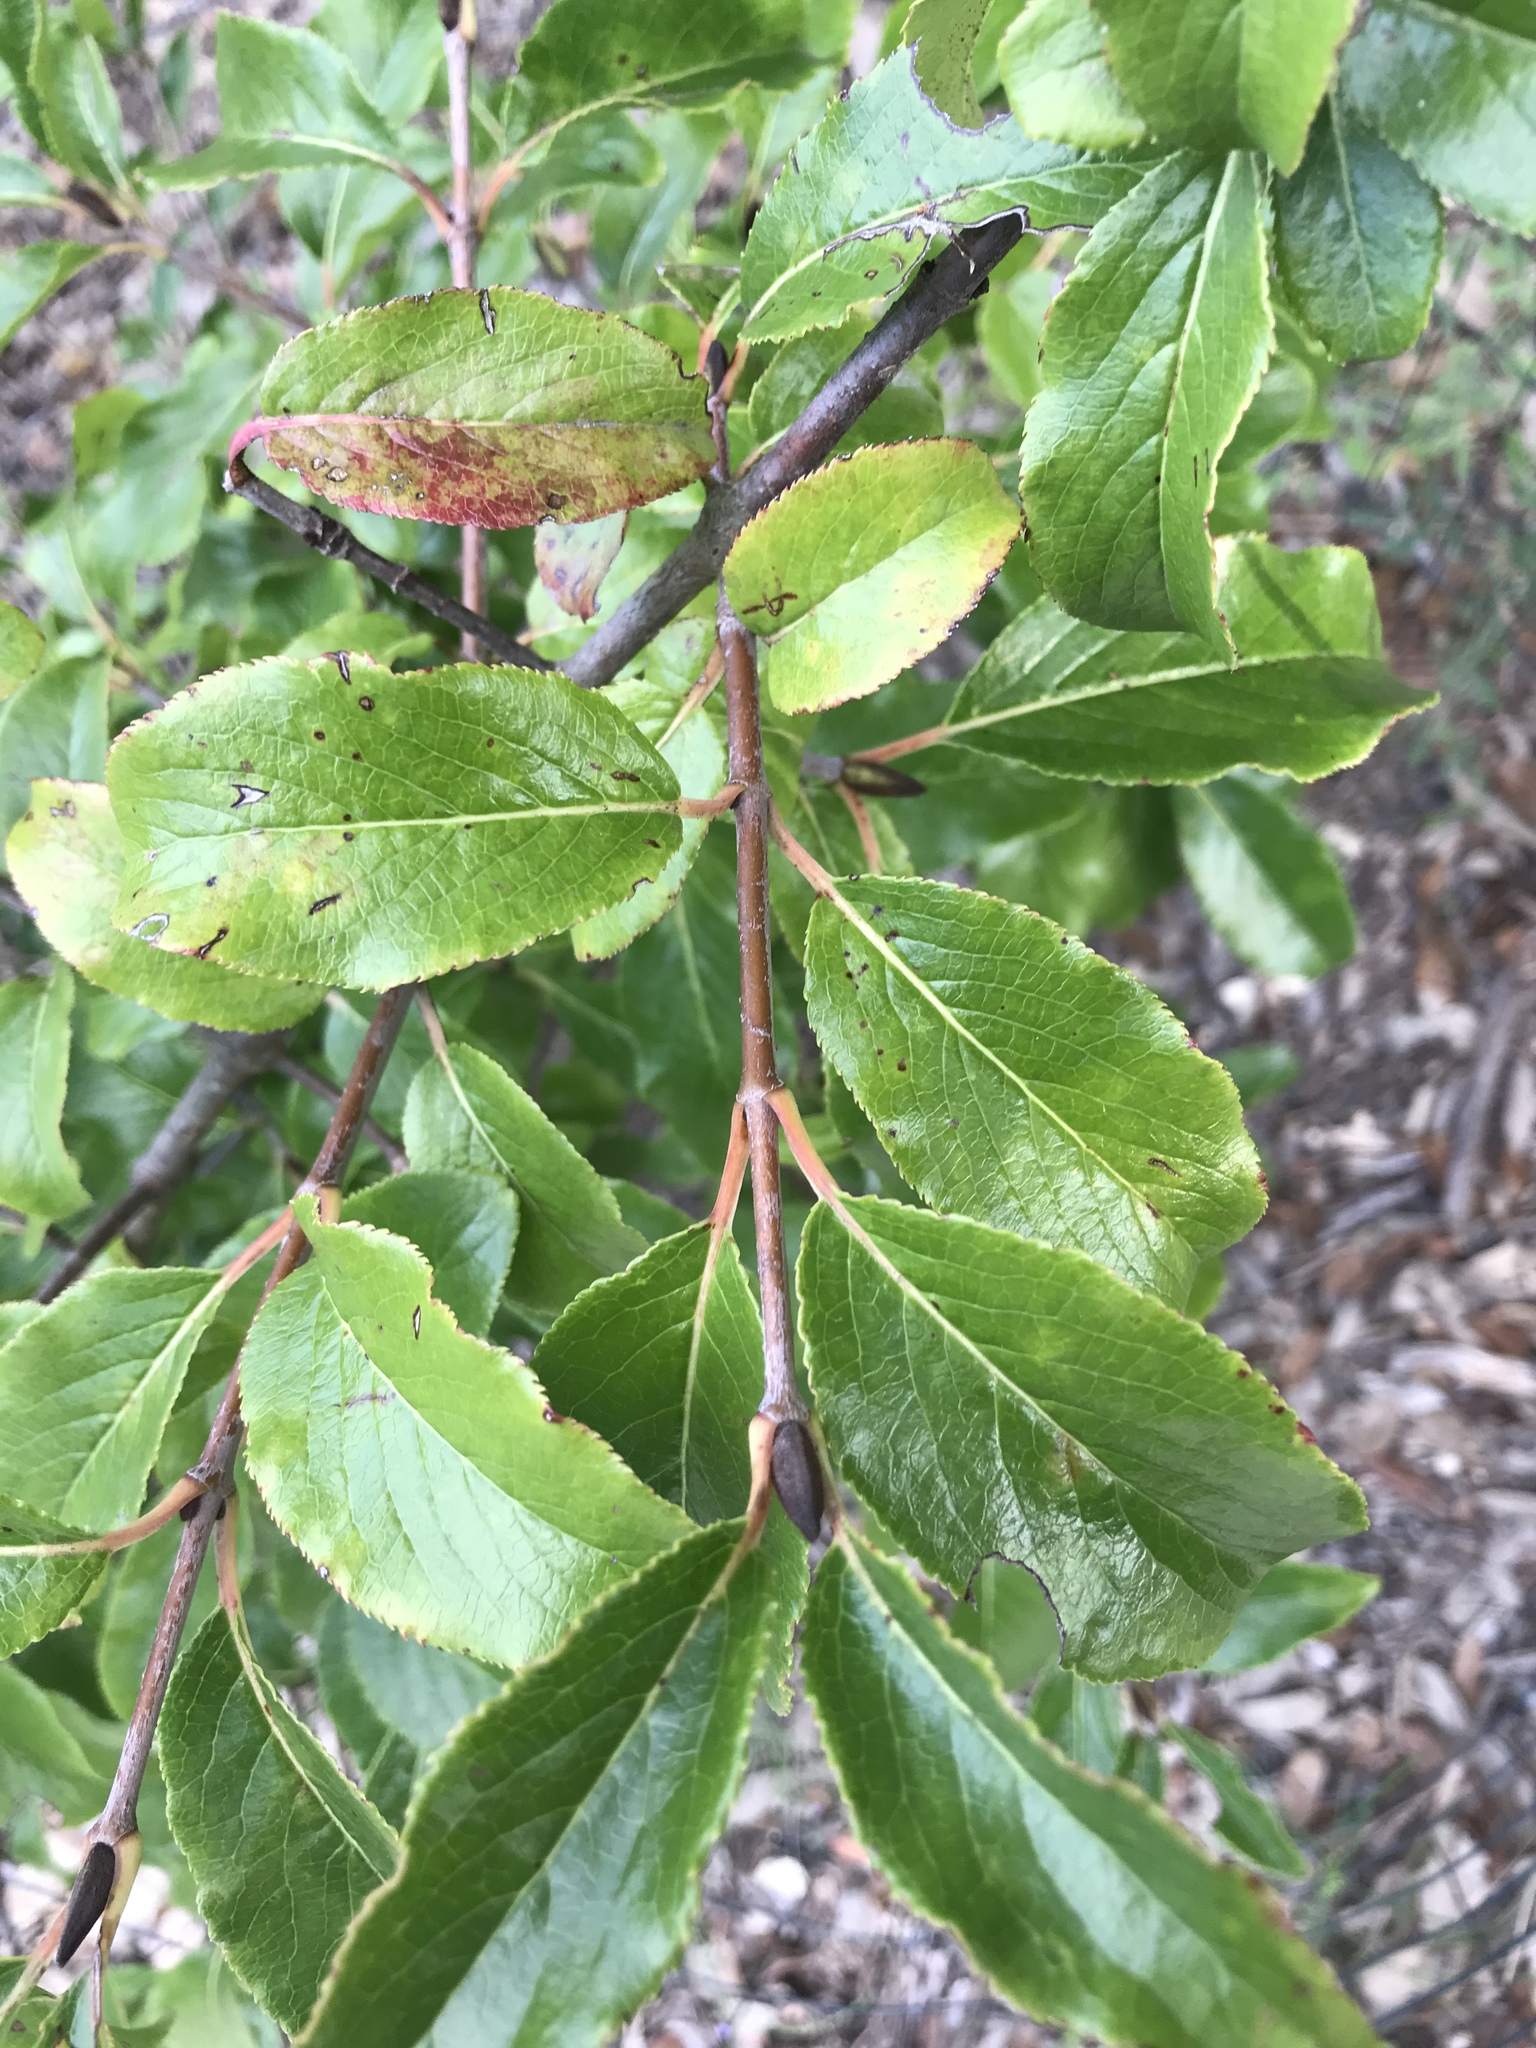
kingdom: Plantae
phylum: Tracheophyta
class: Magnoliopsida
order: Dipsacales
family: Viburnaceae
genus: Viburnum
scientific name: Viburnum rufidulum
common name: Blue haw
